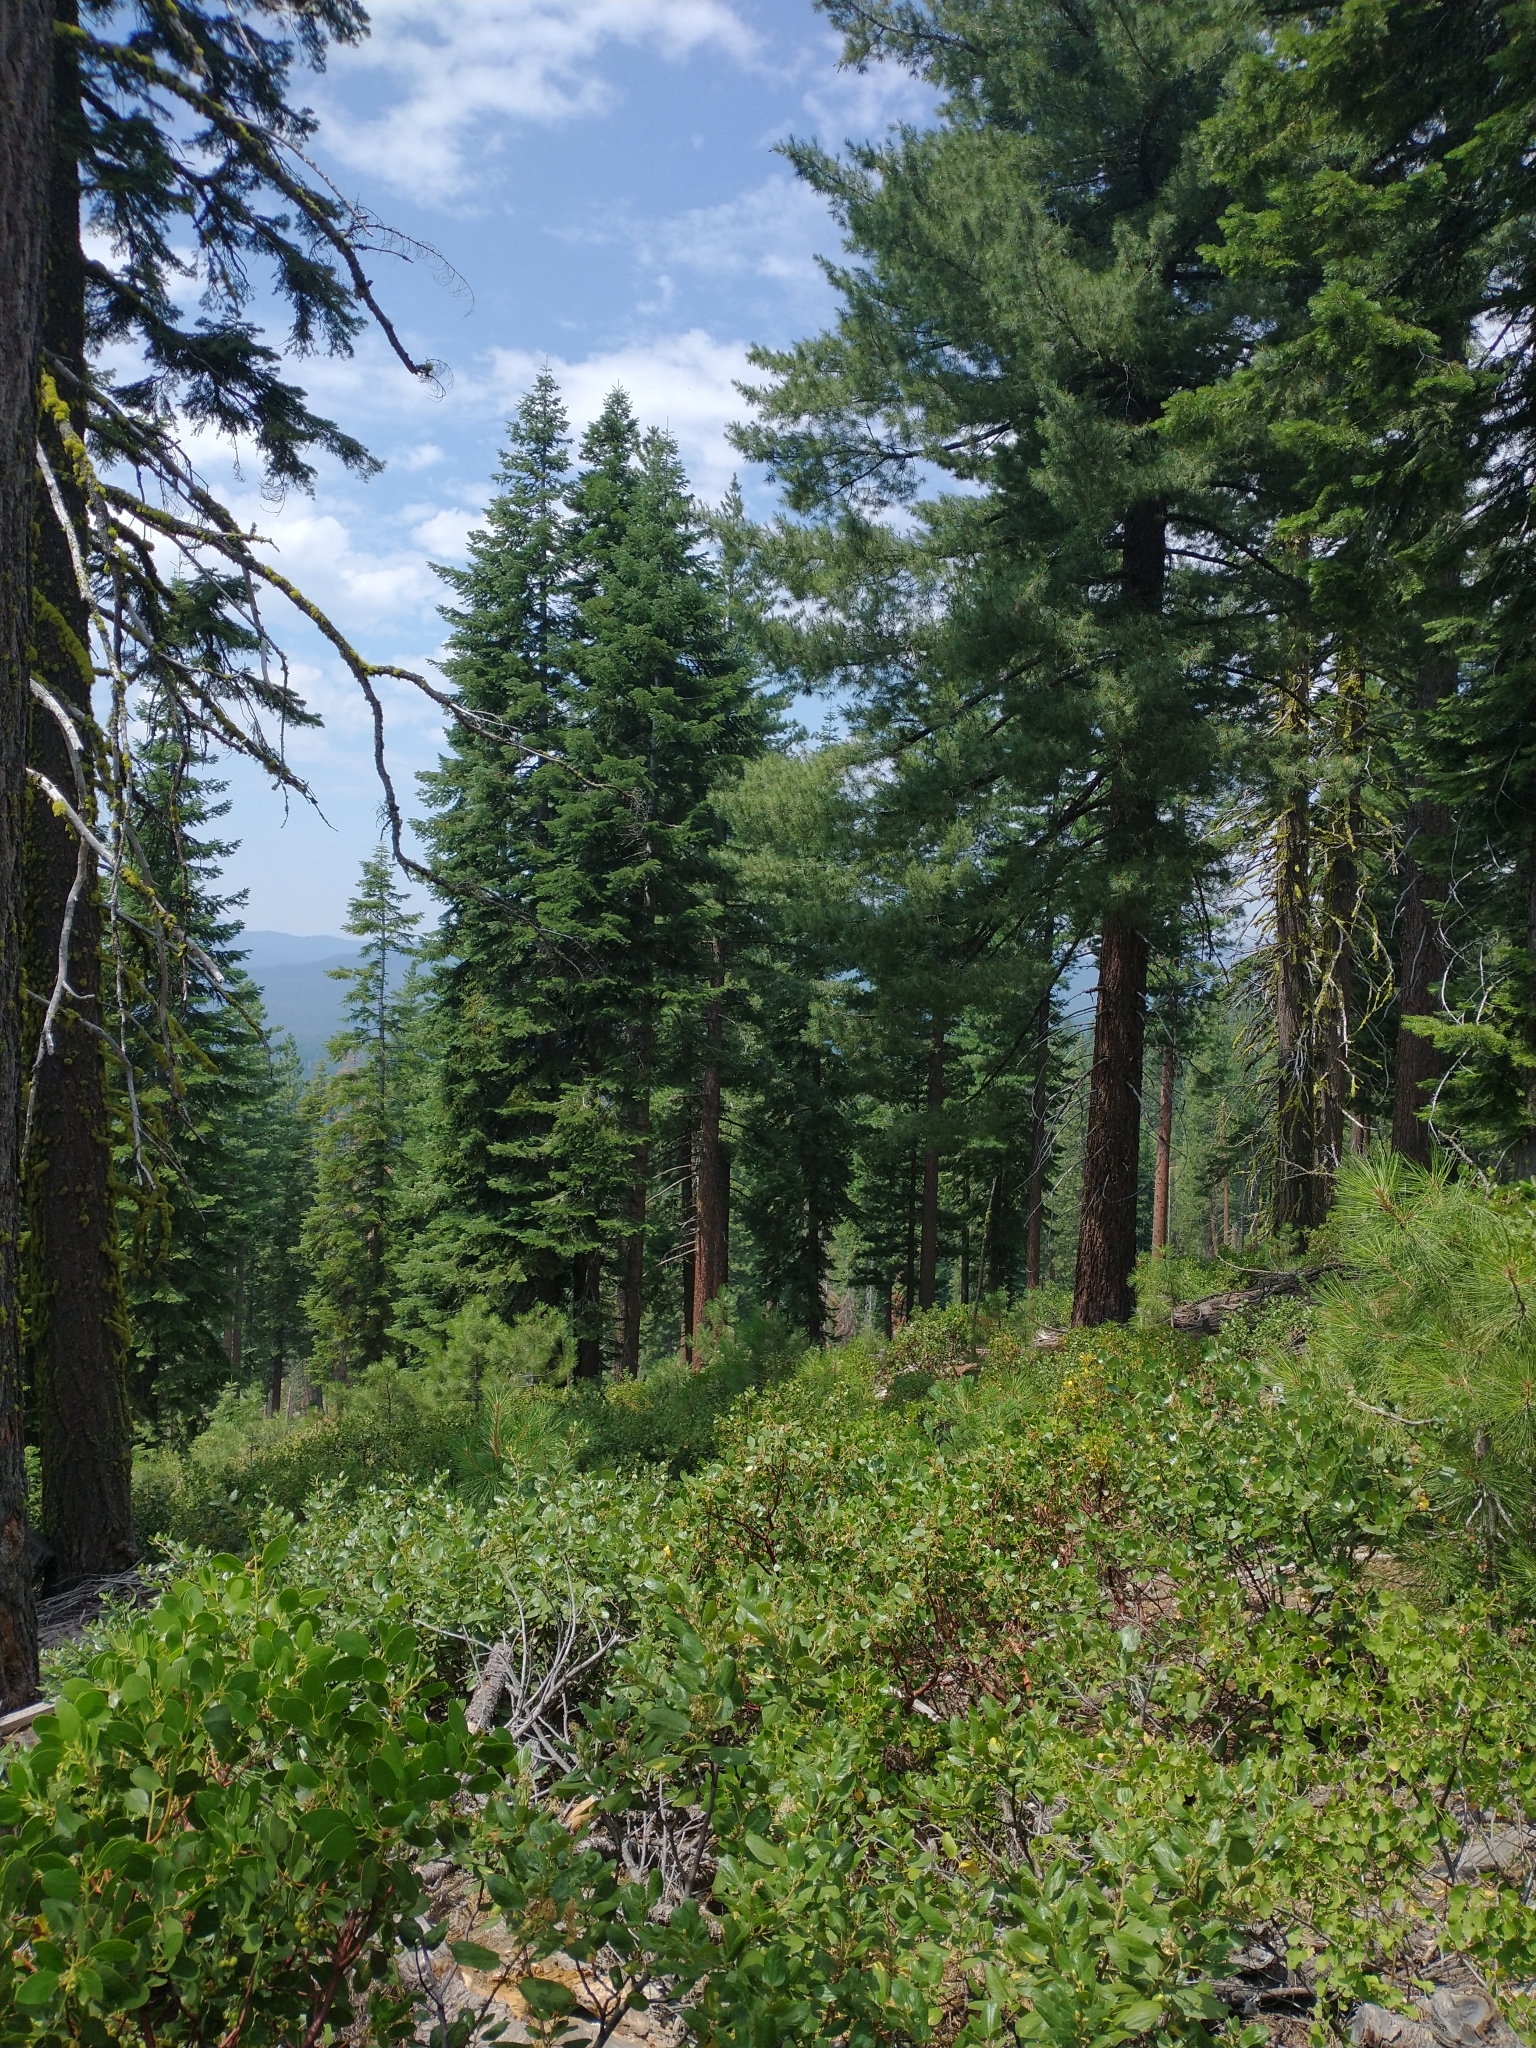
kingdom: Plantae
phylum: Tracheophyta
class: Magnoliopsida
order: Ericales
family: Ericaceae
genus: Arctostaphylos
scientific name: Arctostaphylos patula
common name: Green-leaf manzanita
